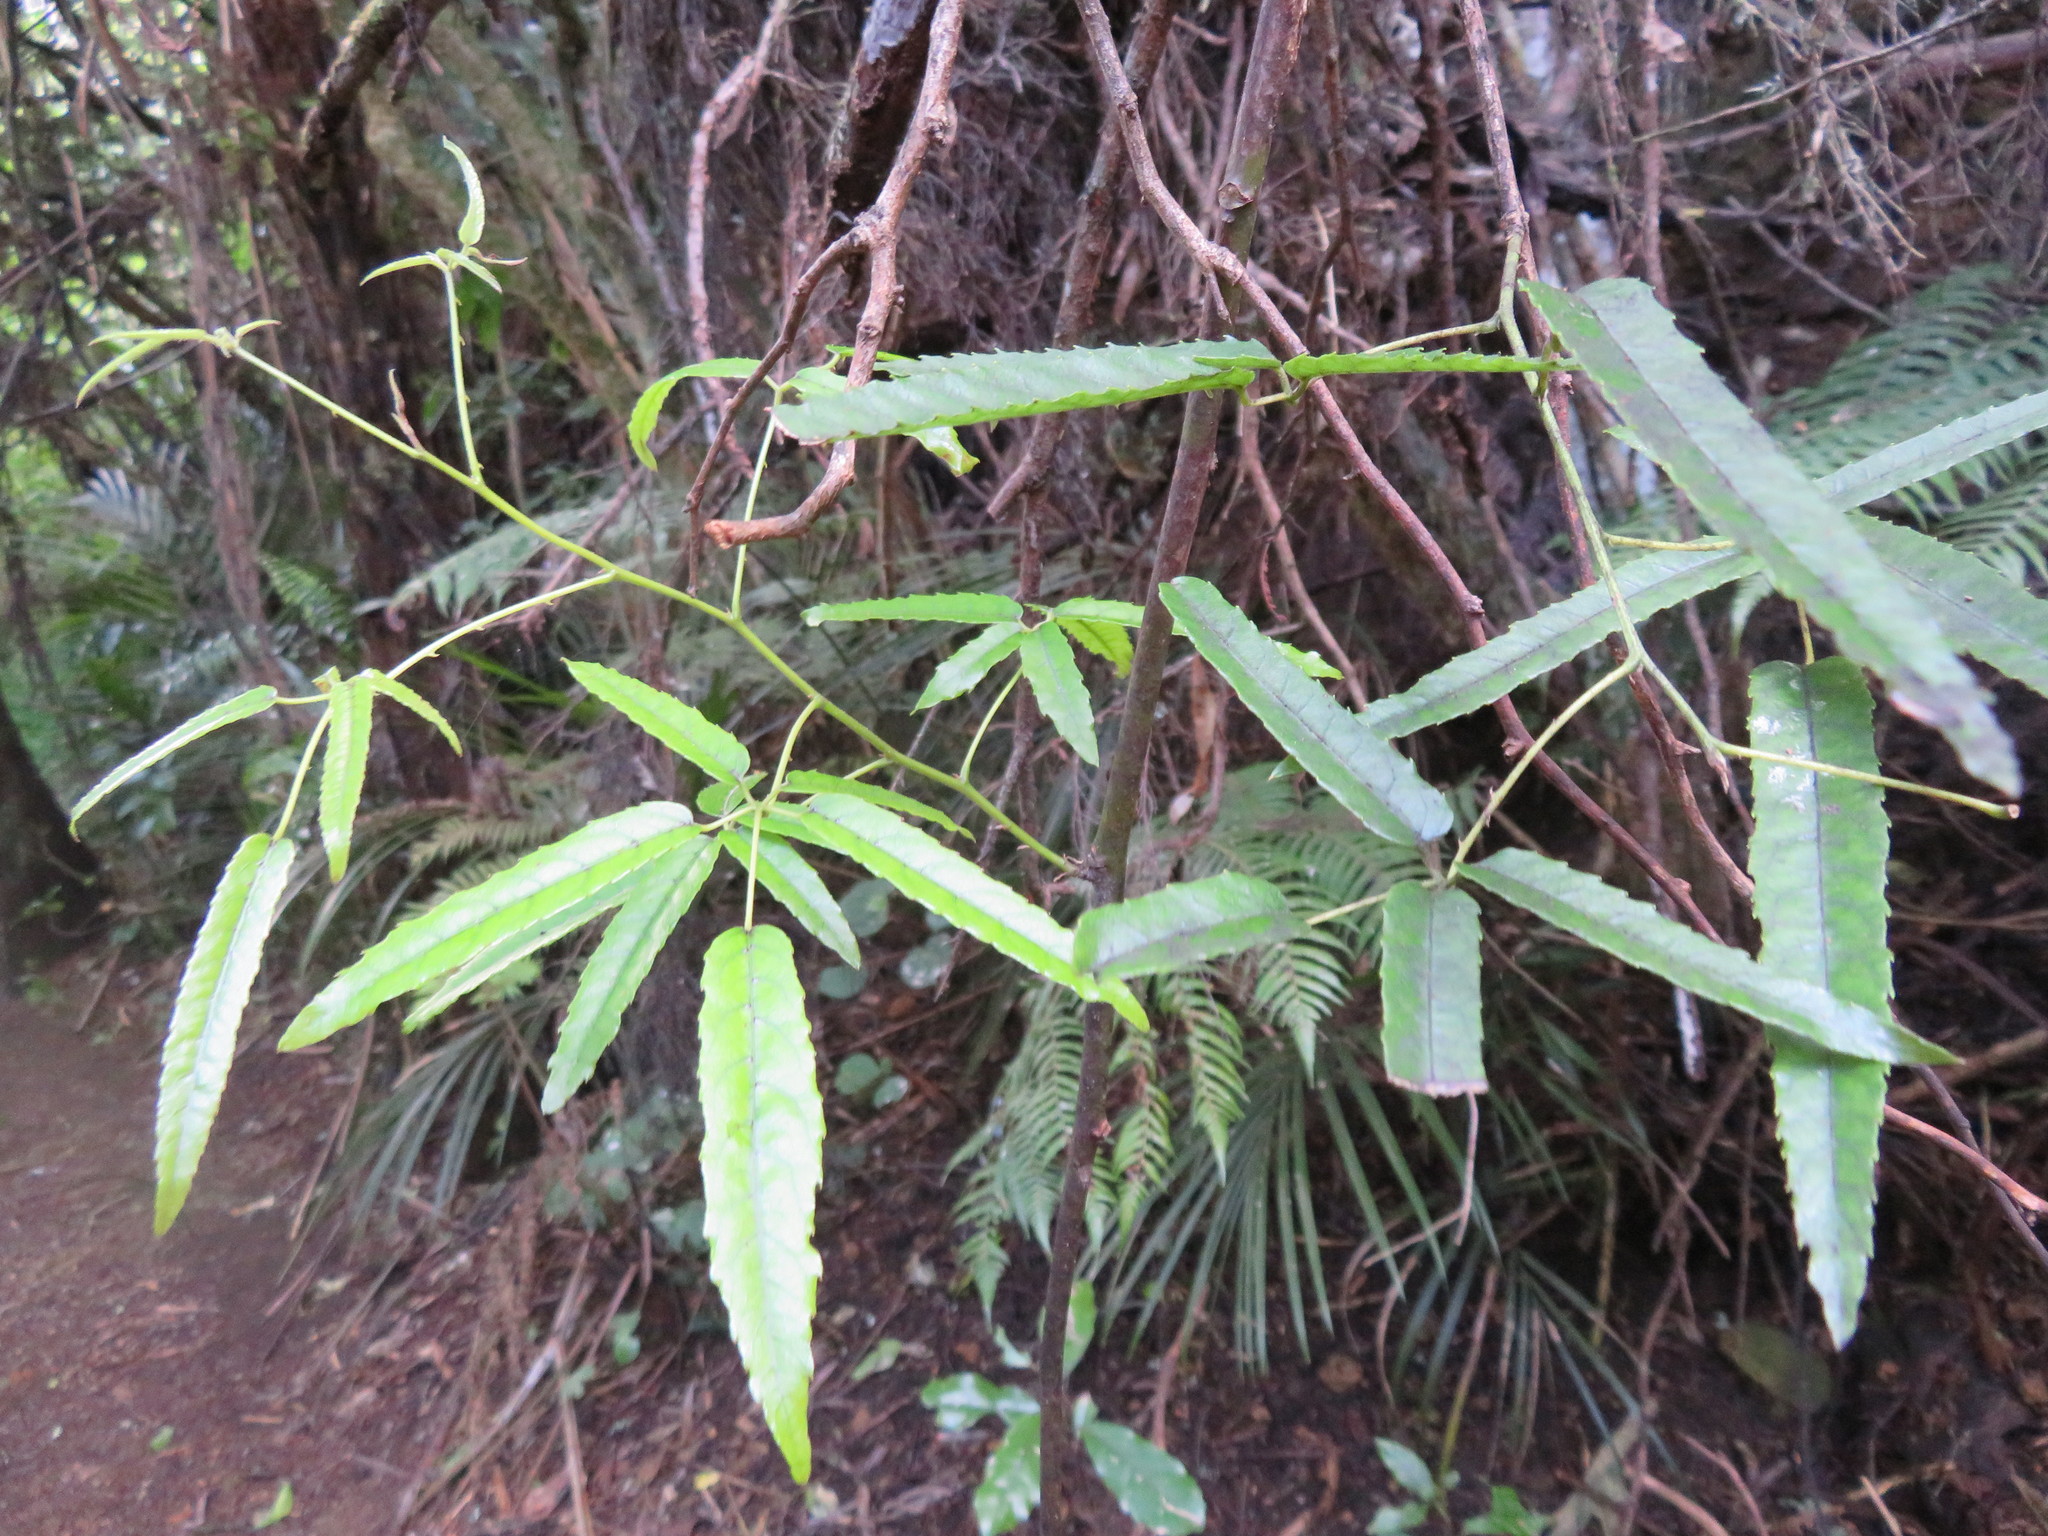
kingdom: Plantae
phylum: Tracheophyta
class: Magnoliopsida
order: Rosales
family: Rosaceae
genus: Rubus
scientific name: Rubus cissoides
